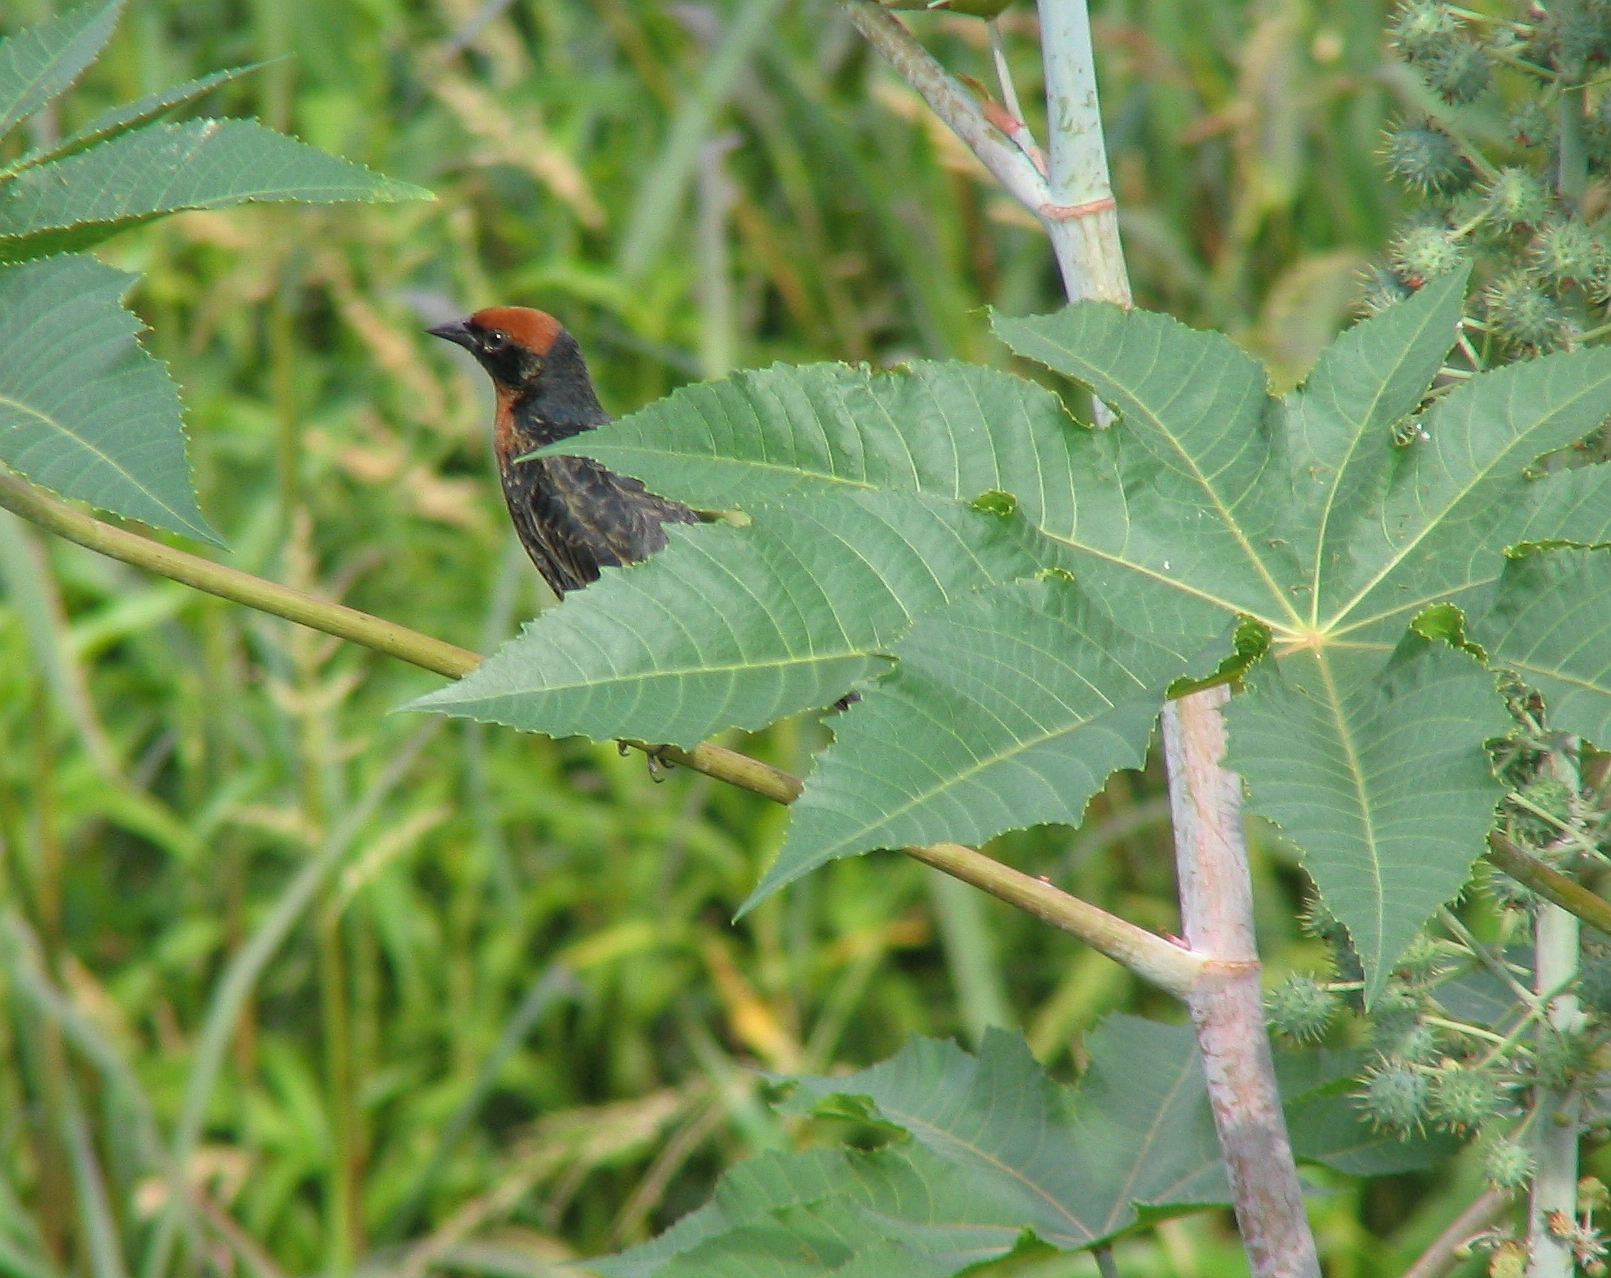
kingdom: Animalia
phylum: Chordata
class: Aves
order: Passeriformes
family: Icteridae
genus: Chrysomus
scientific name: Chrysomus ruficapillus
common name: Chestnut-capped blackbird
